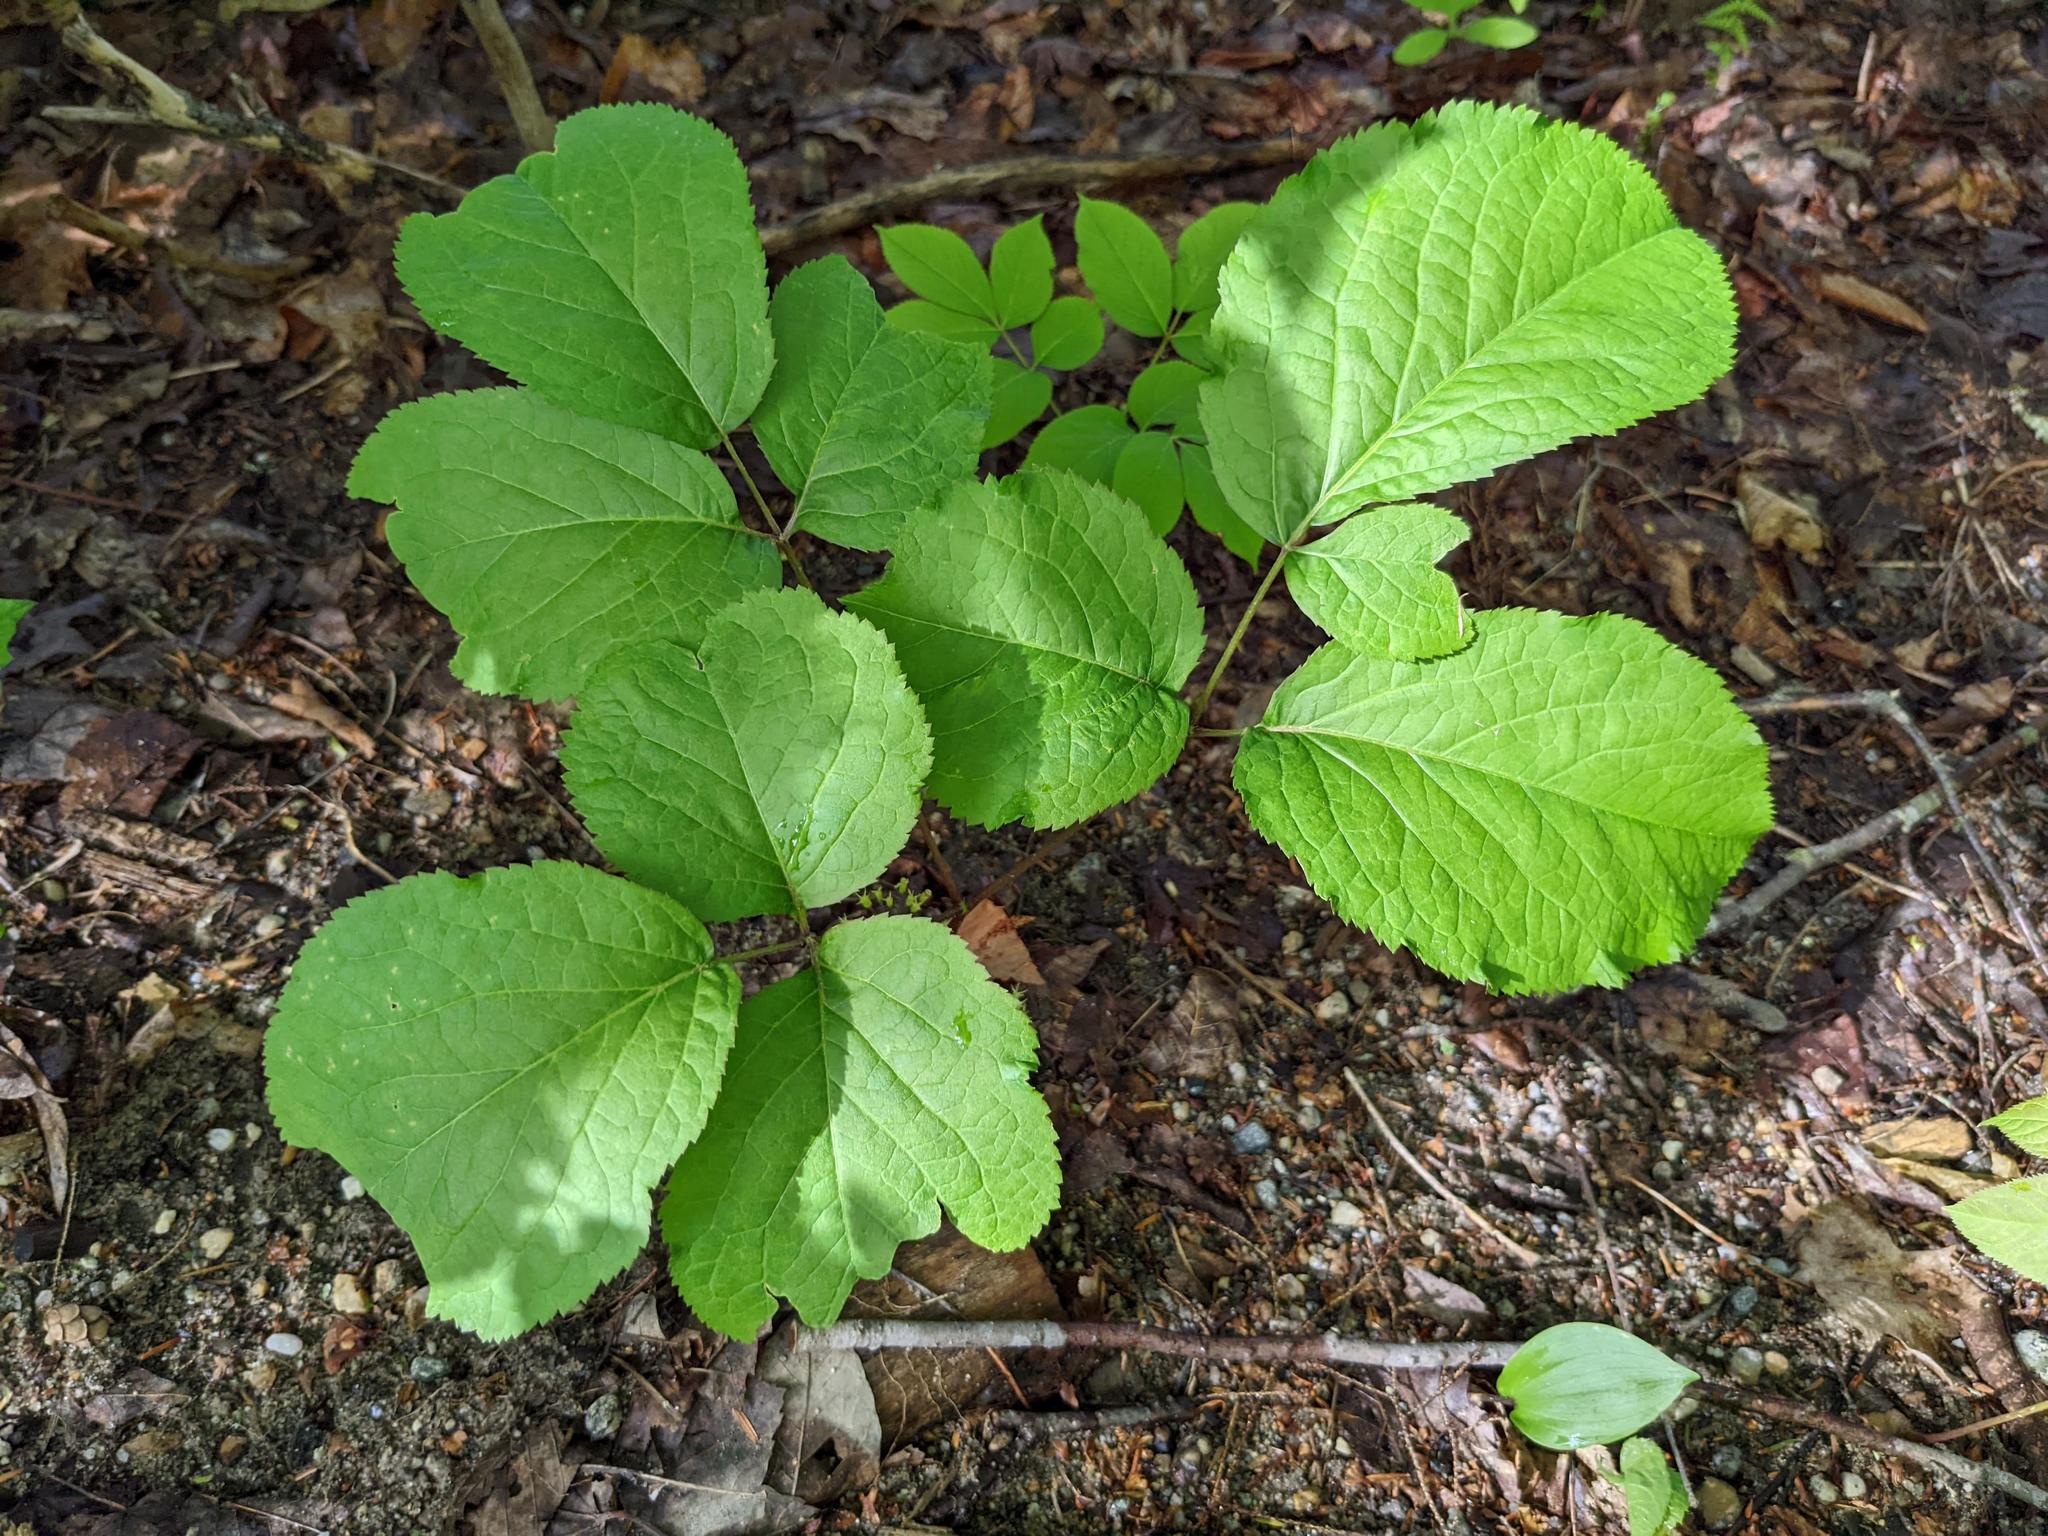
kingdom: Plantae
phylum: Tracheophyta
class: Magnoliopsida
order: Apiales
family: Araliaceae
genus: Aralia
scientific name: Aralia nudicaulis
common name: Wild sarsaparilla
